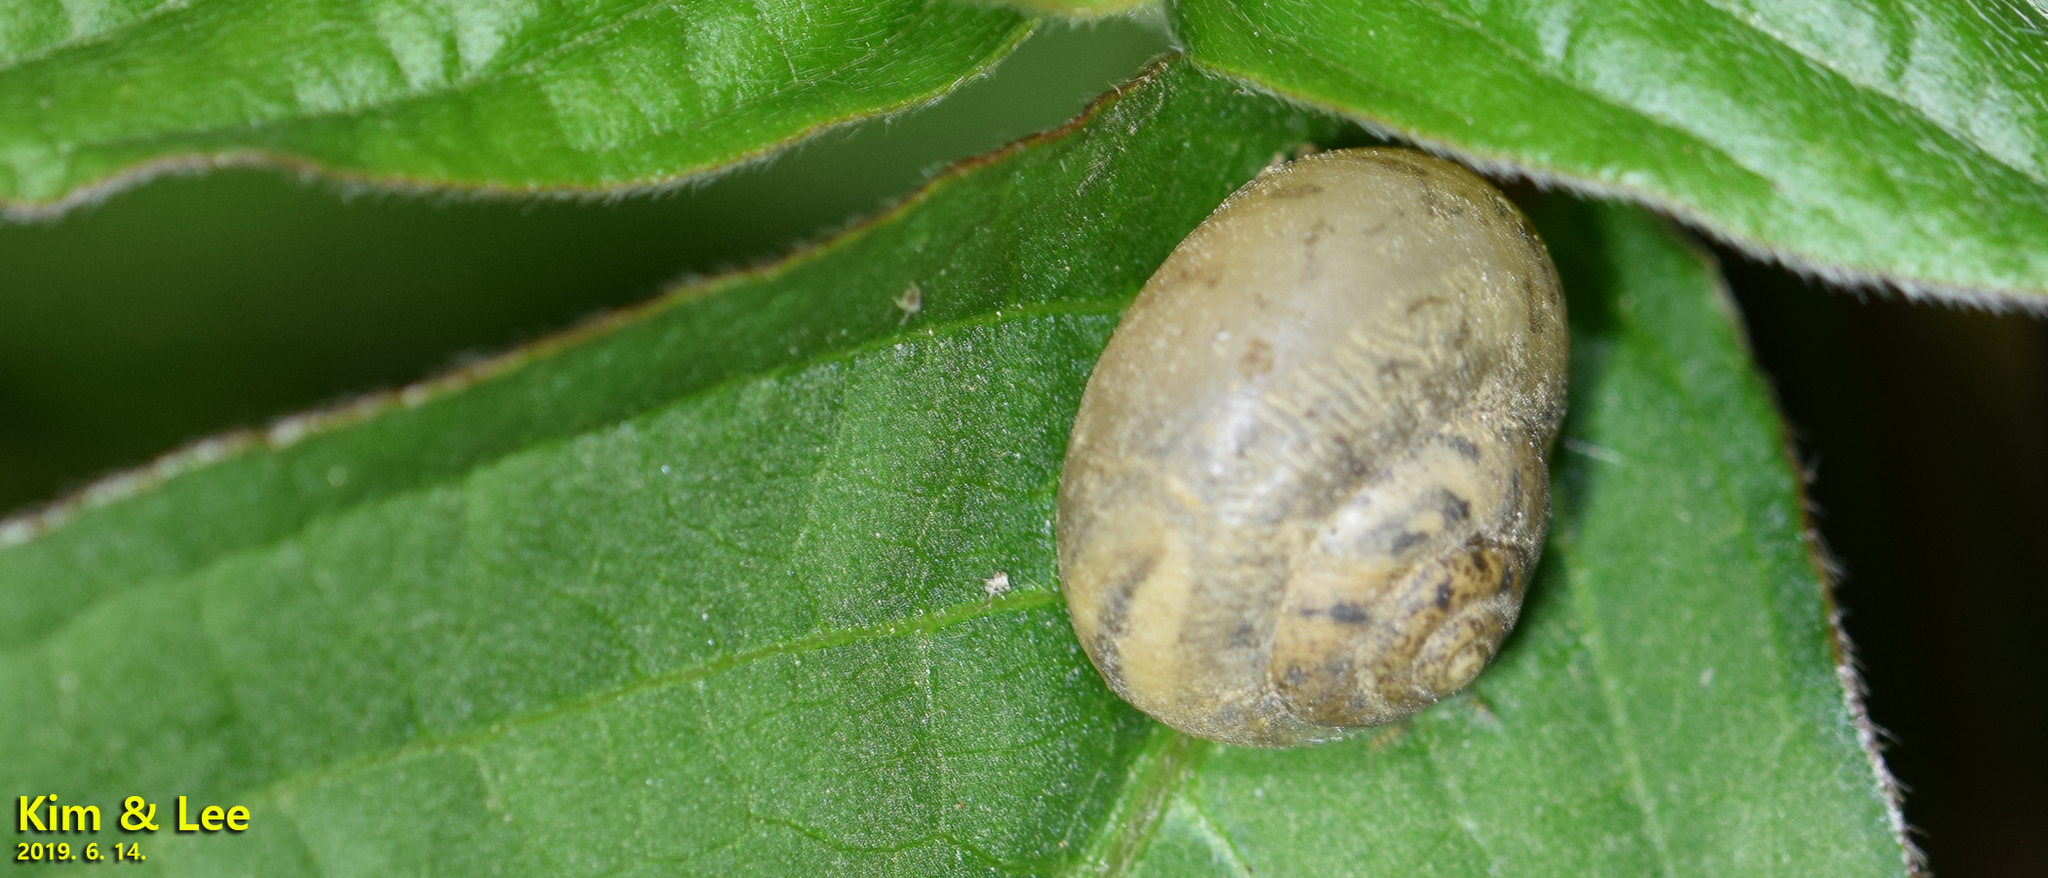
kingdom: Animalia
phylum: Mollusca
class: Gastropoda
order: Stylommatophora
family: Camaenidae
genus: Acusta
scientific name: Acusta redfieldi
